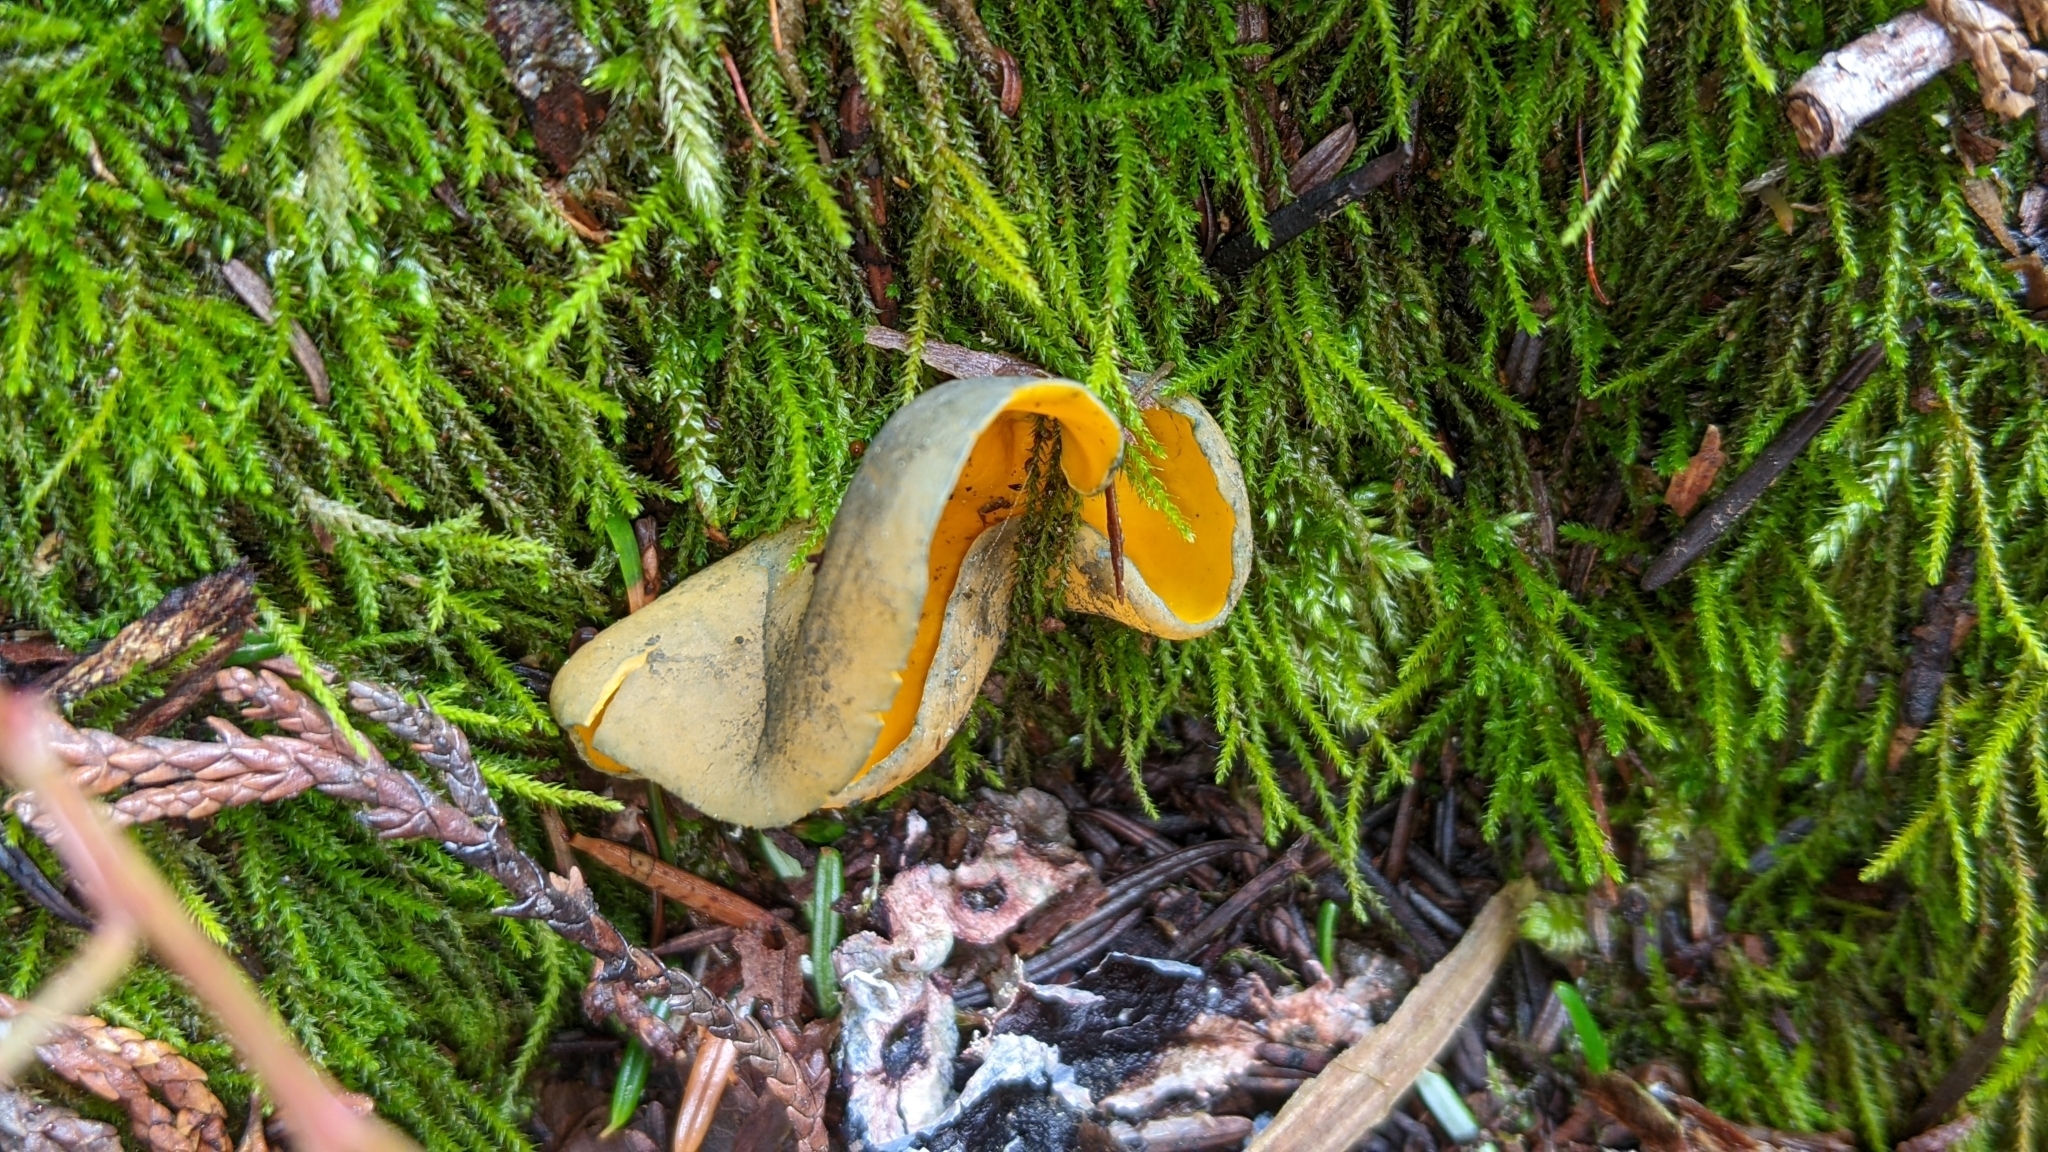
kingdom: Fungi
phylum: Ascomycota
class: Pezizomycetes
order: Pezizales
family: Caloscyphaceae
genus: Caloscypha
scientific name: Caloscypha fulgens
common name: Golden cup
